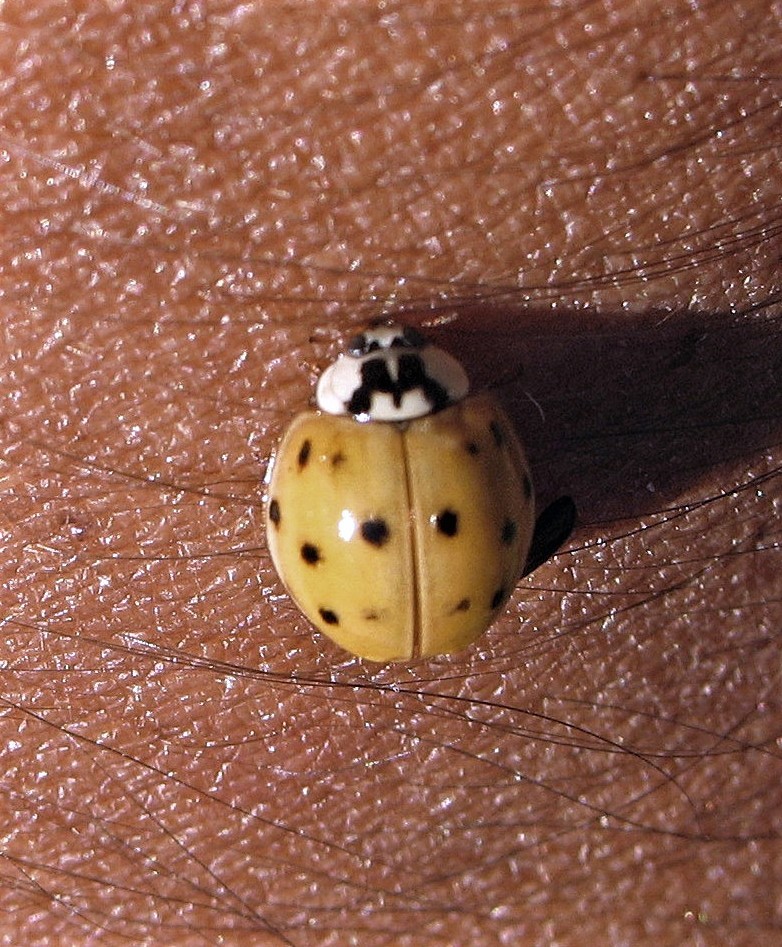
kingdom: Animalia
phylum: Arthropoda
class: Insecta
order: Coleoptera
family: Coccinellidae
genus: Harmonia
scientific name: Harmonia axyridis
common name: Harlequin ladybird
